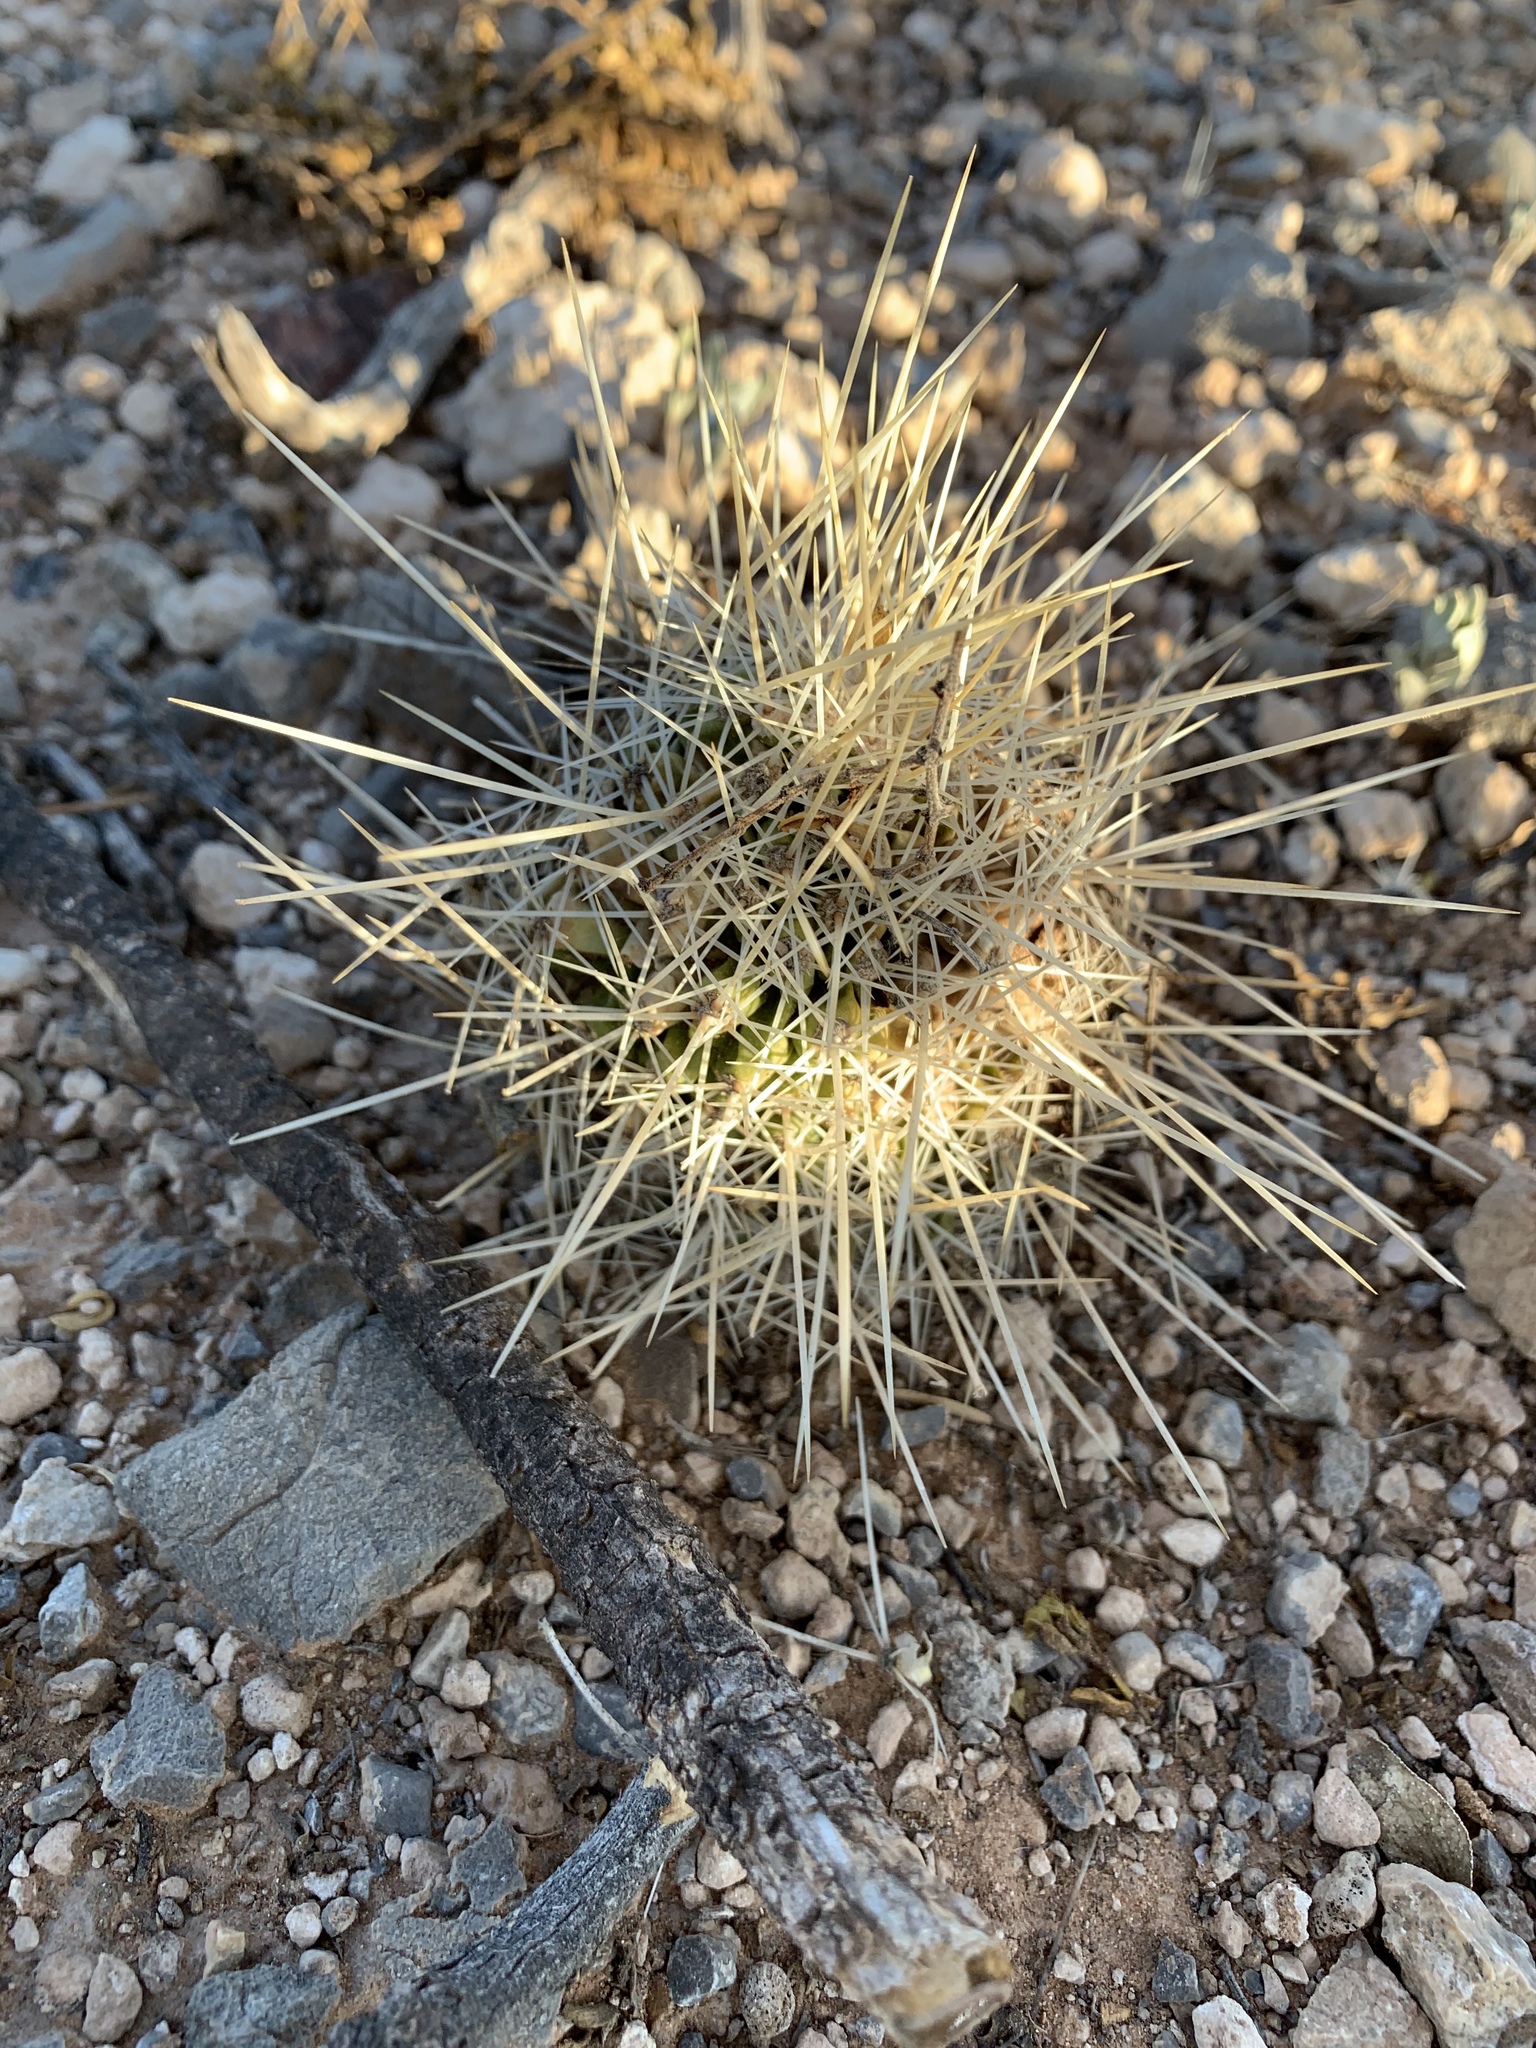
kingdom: Plantae
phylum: Tracheophyta
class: Magnoliopsida
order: Caryophyllales
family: Cactaceae
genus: Echinocereus
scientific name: Echinocereus stramineus
